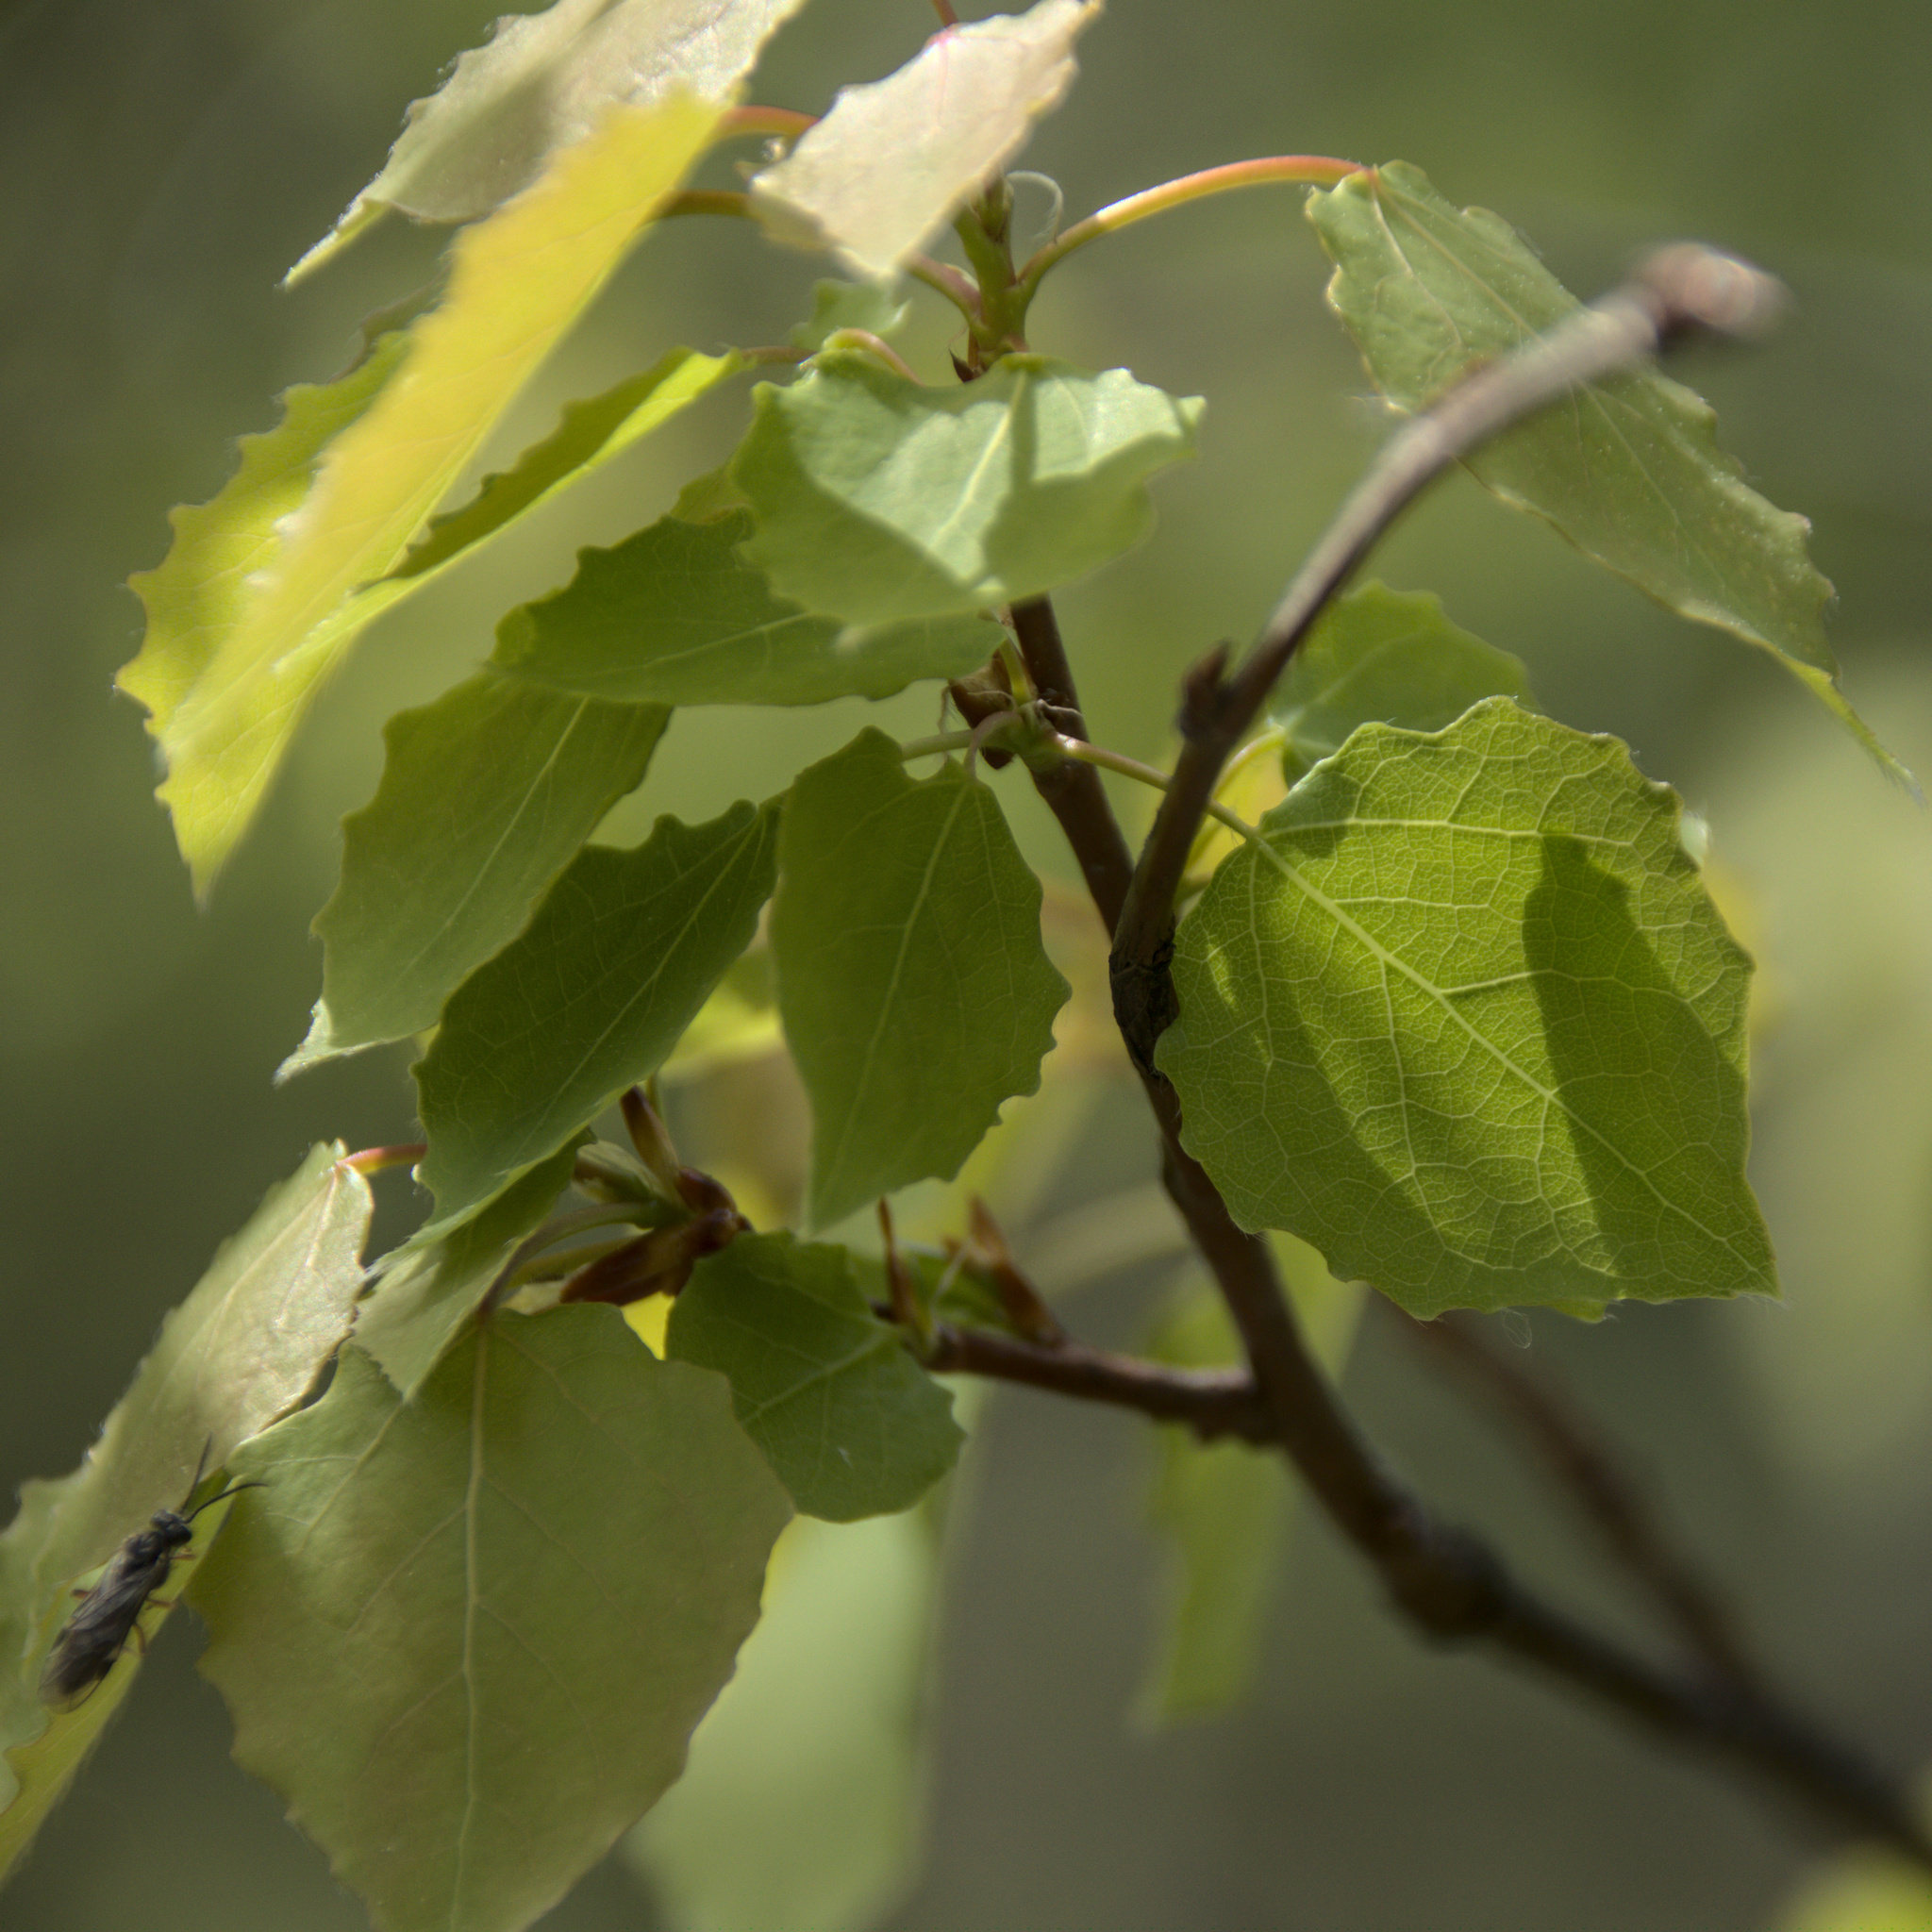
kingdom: Plantae
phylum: Tracheophyta
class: Magnoliopsida
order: Malpighiales
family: Salicaceae
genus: Populus
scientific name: Populus tremula
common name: European aspen
